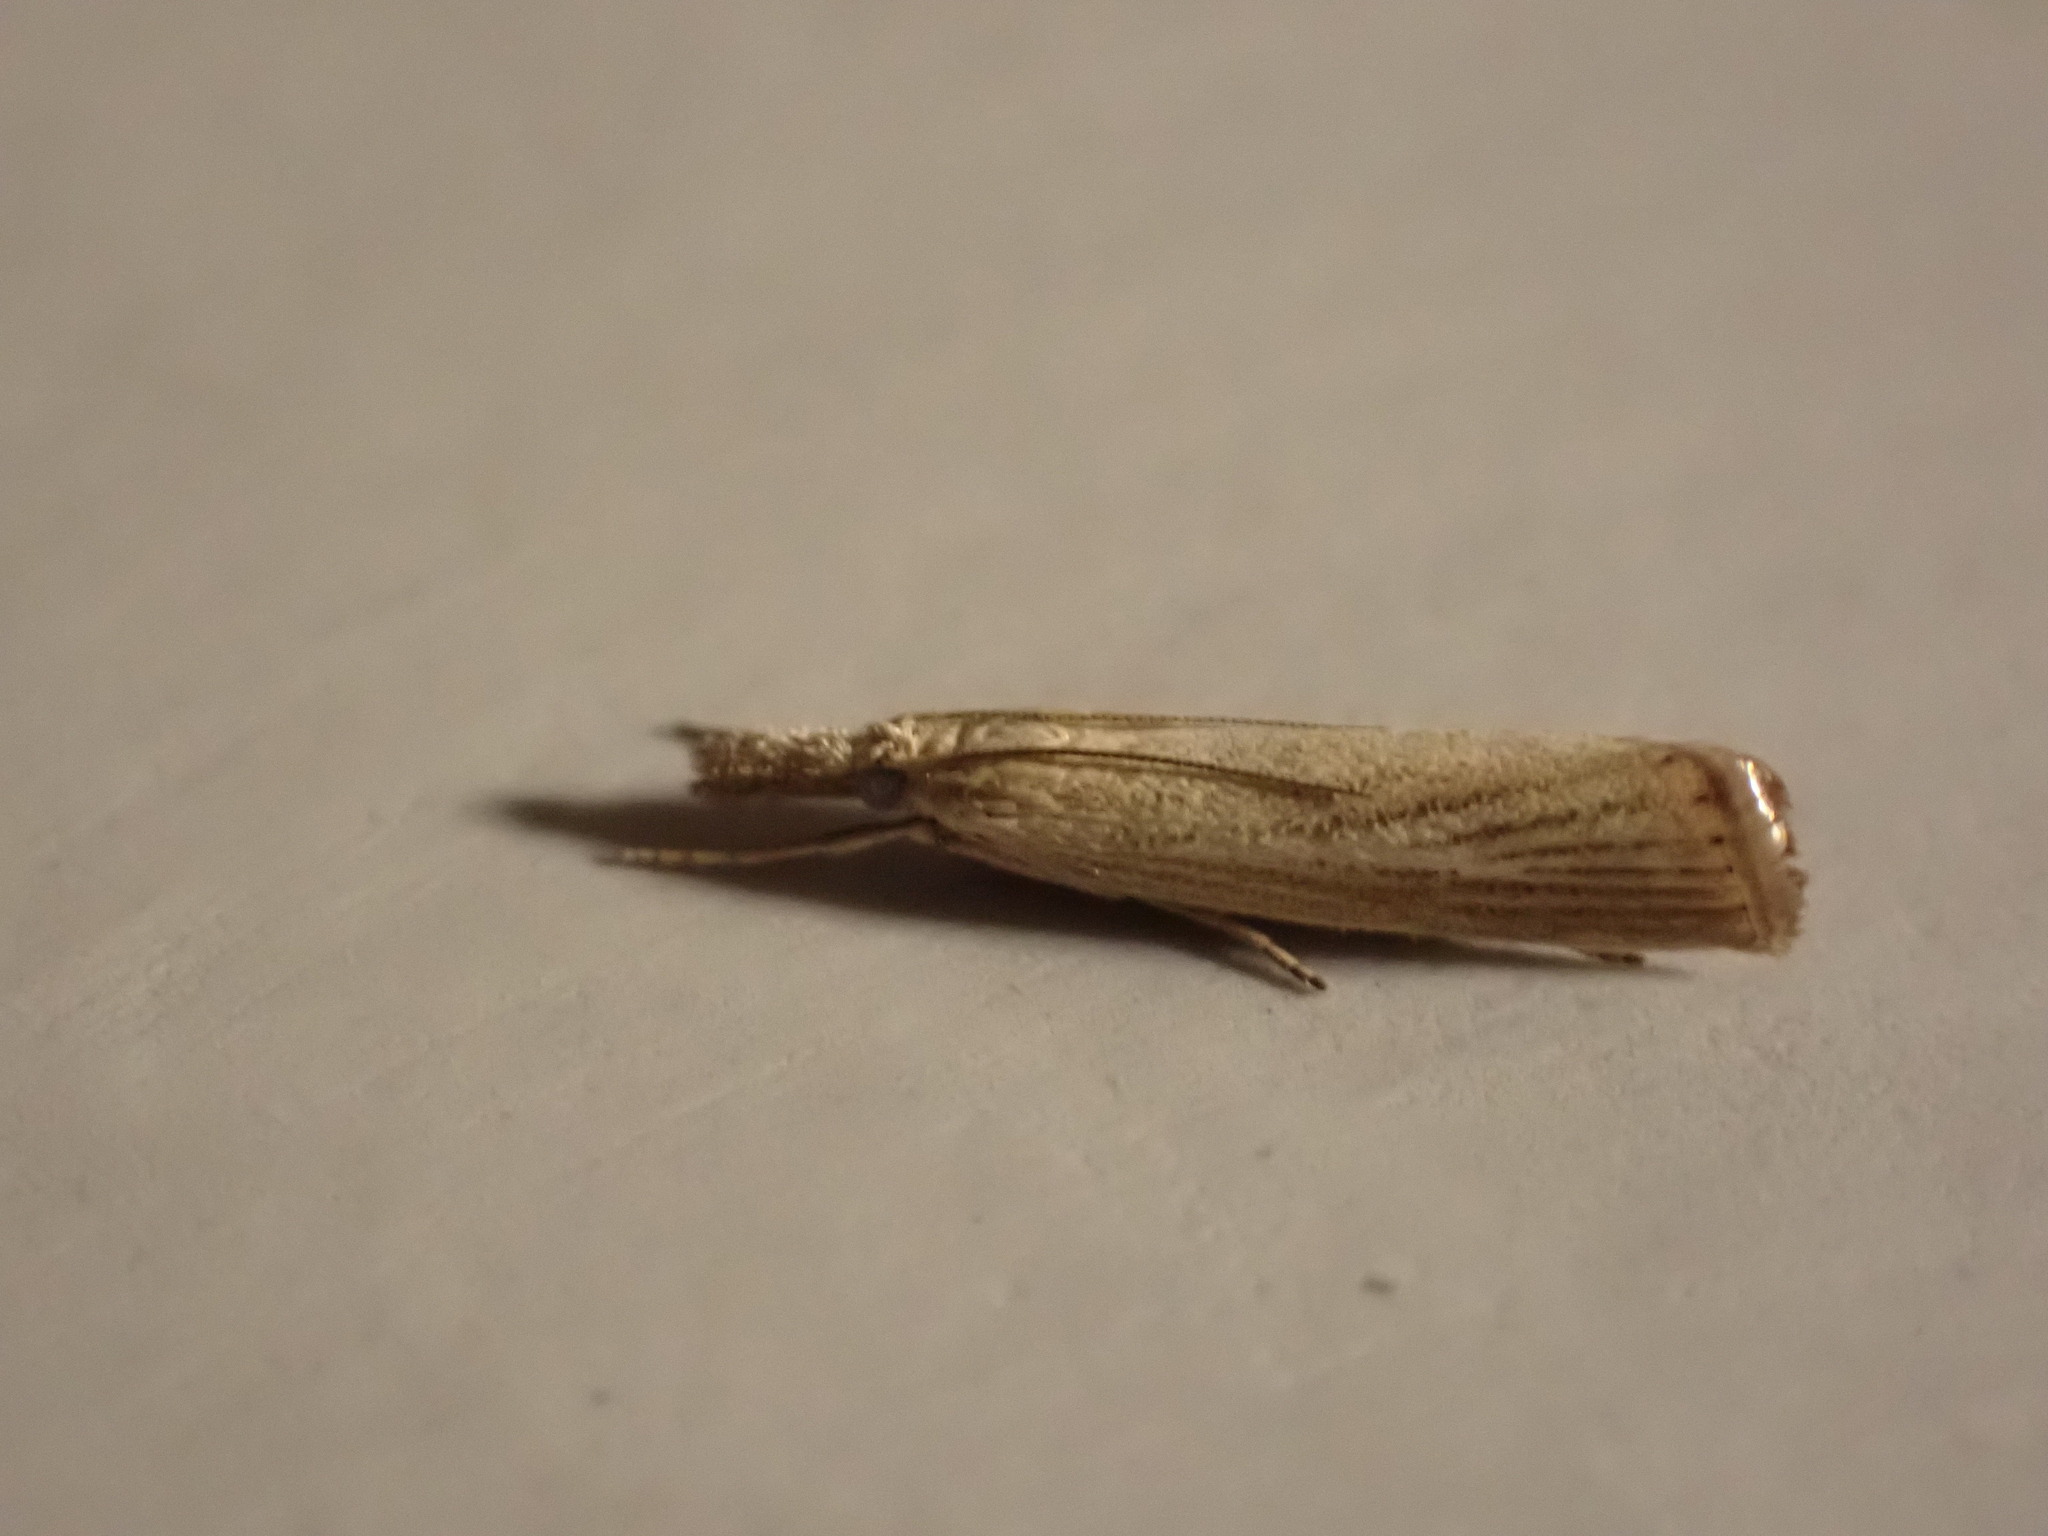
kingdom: Animalia
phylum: Arthropoda
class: Insecta
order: Lepidoptera
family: Crambidae
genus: Agriphila
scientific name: Agriphila straminella
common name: Straw grass-veneer
